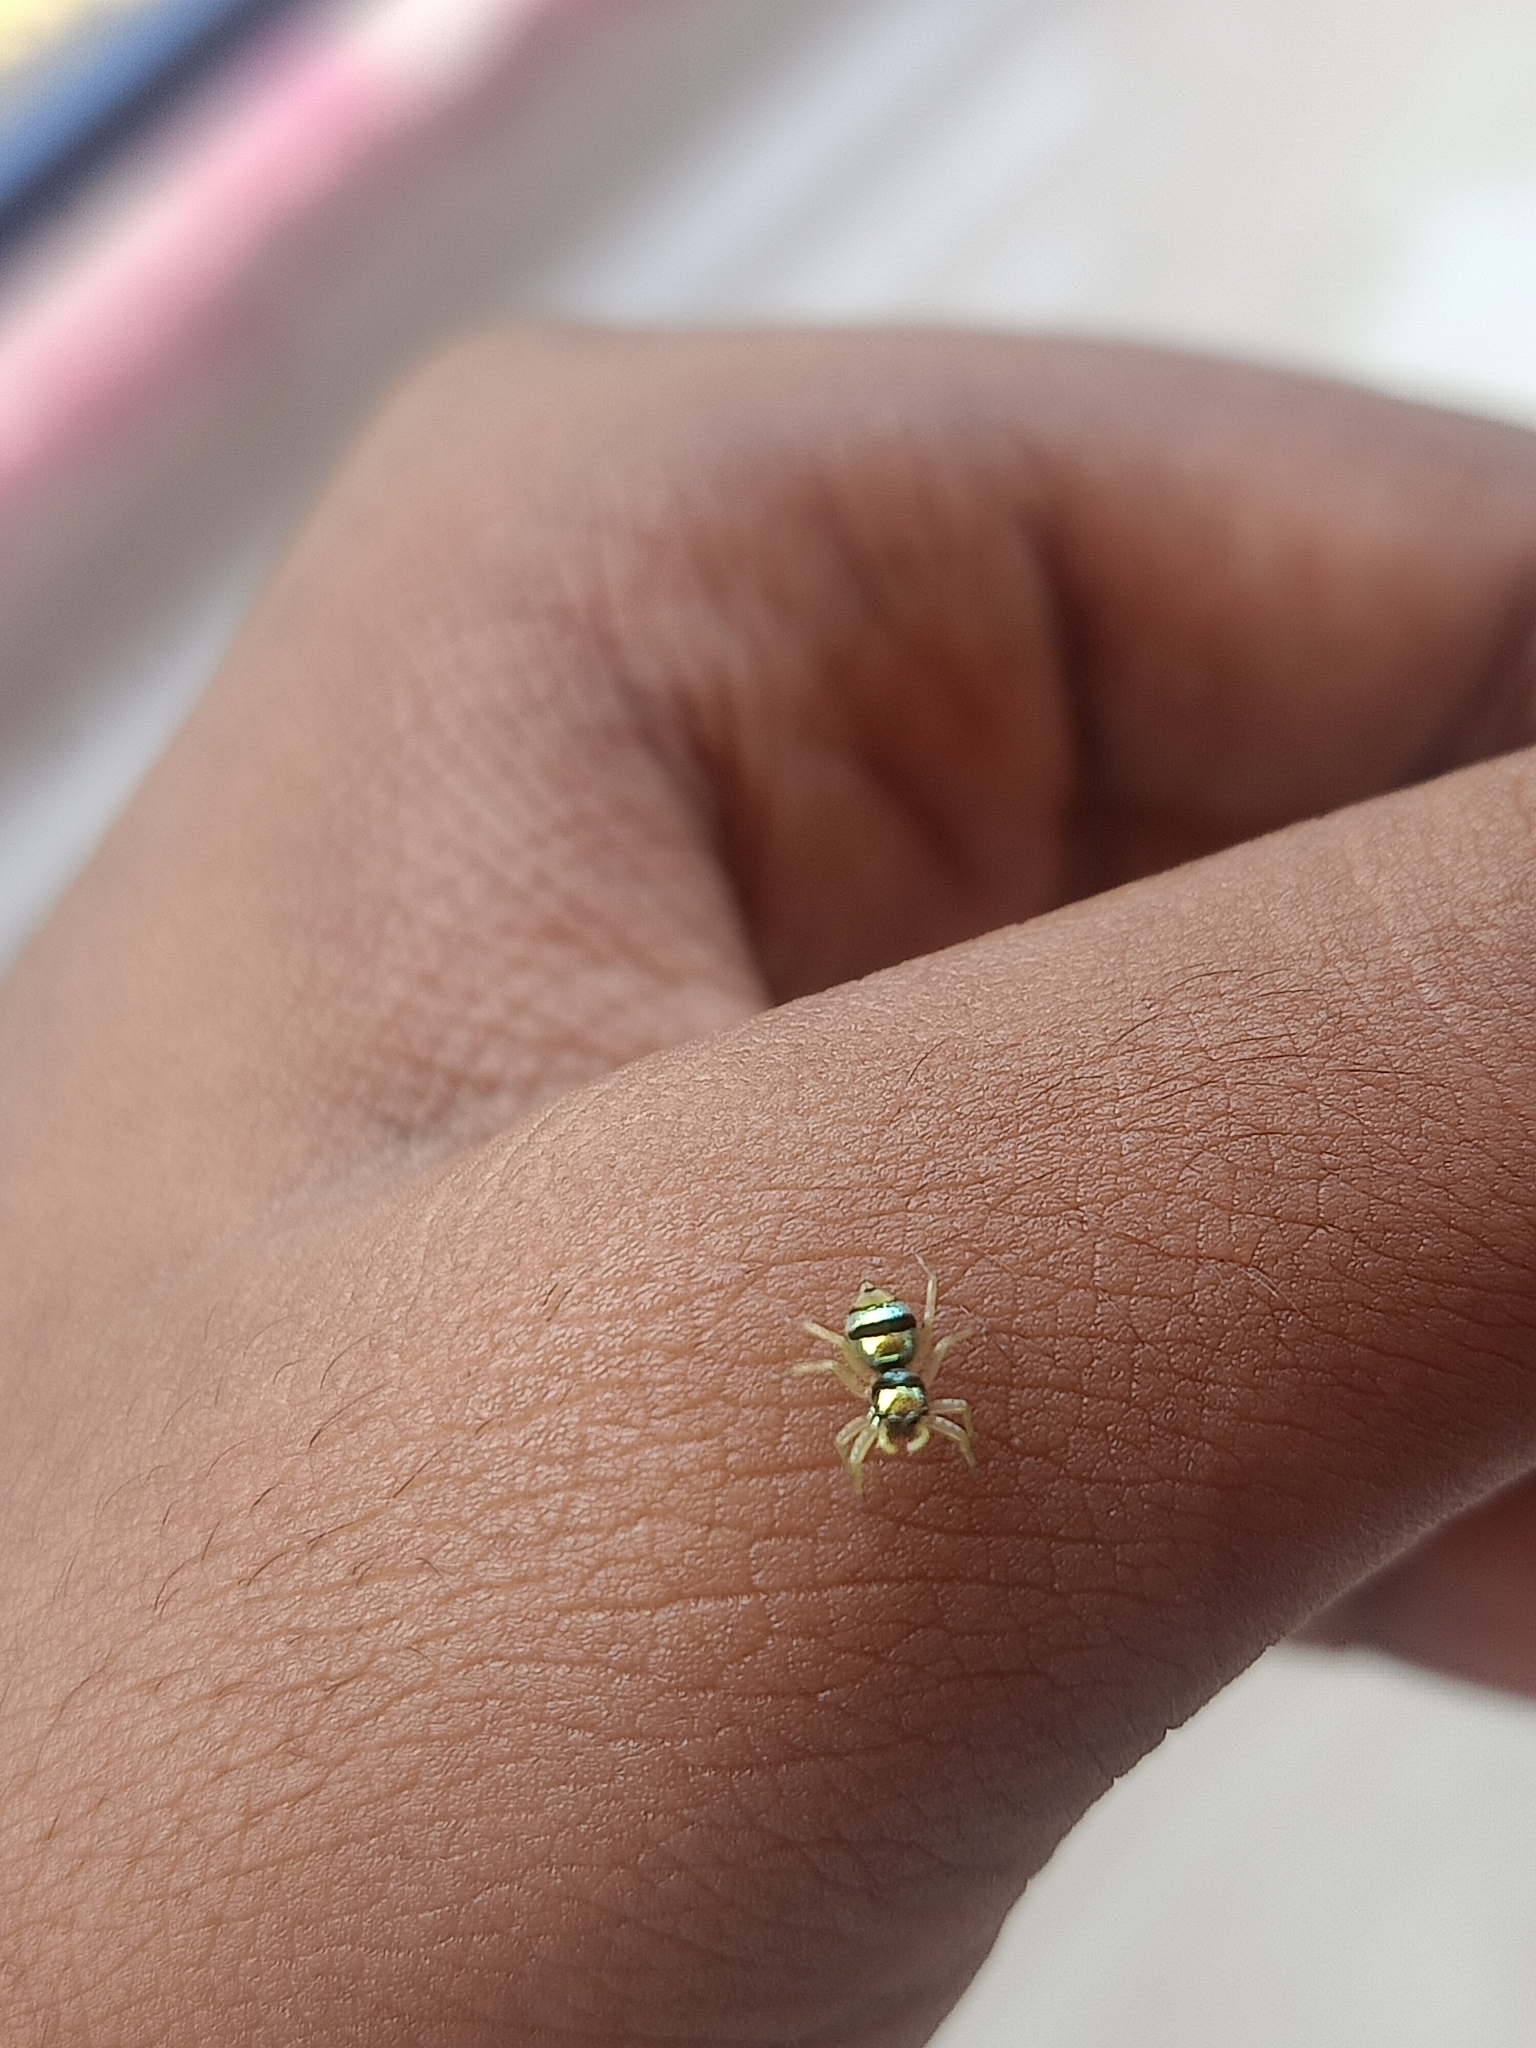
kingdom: Animalia
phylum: Arthropoda
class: Arachnida
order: Araneae
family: Salticidae
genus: Phintella
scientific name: Phintella vittata
